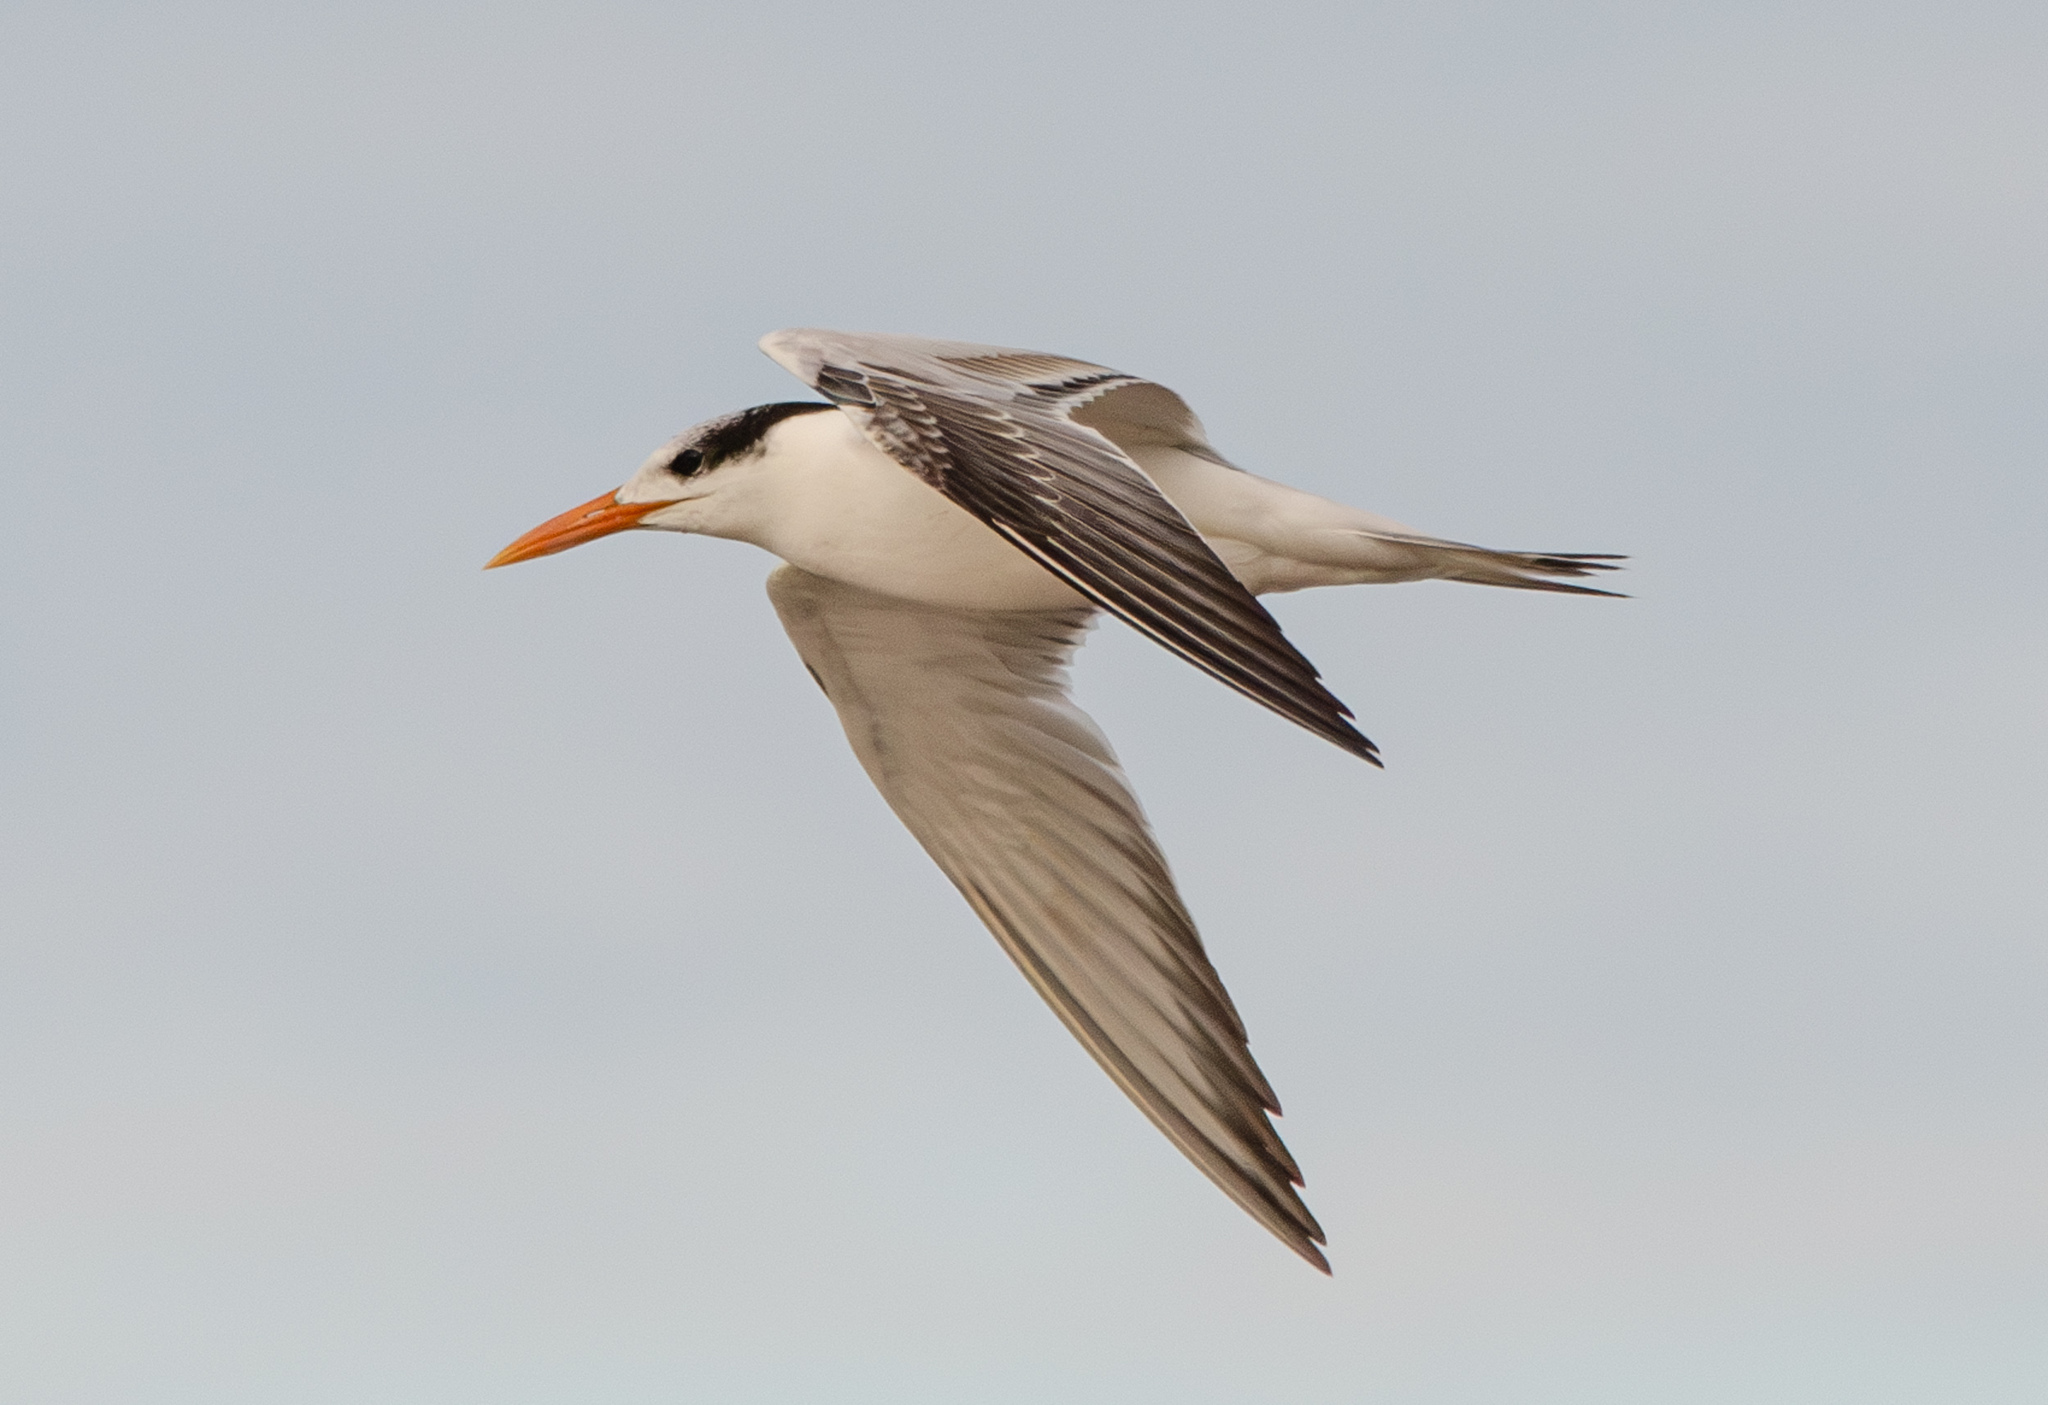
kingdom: Animalia
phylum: Chordata
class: Aves
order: Charadriiformes
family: Laridae
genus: Thalasseus
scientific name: Thalasseus maximus
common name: Royal tern
